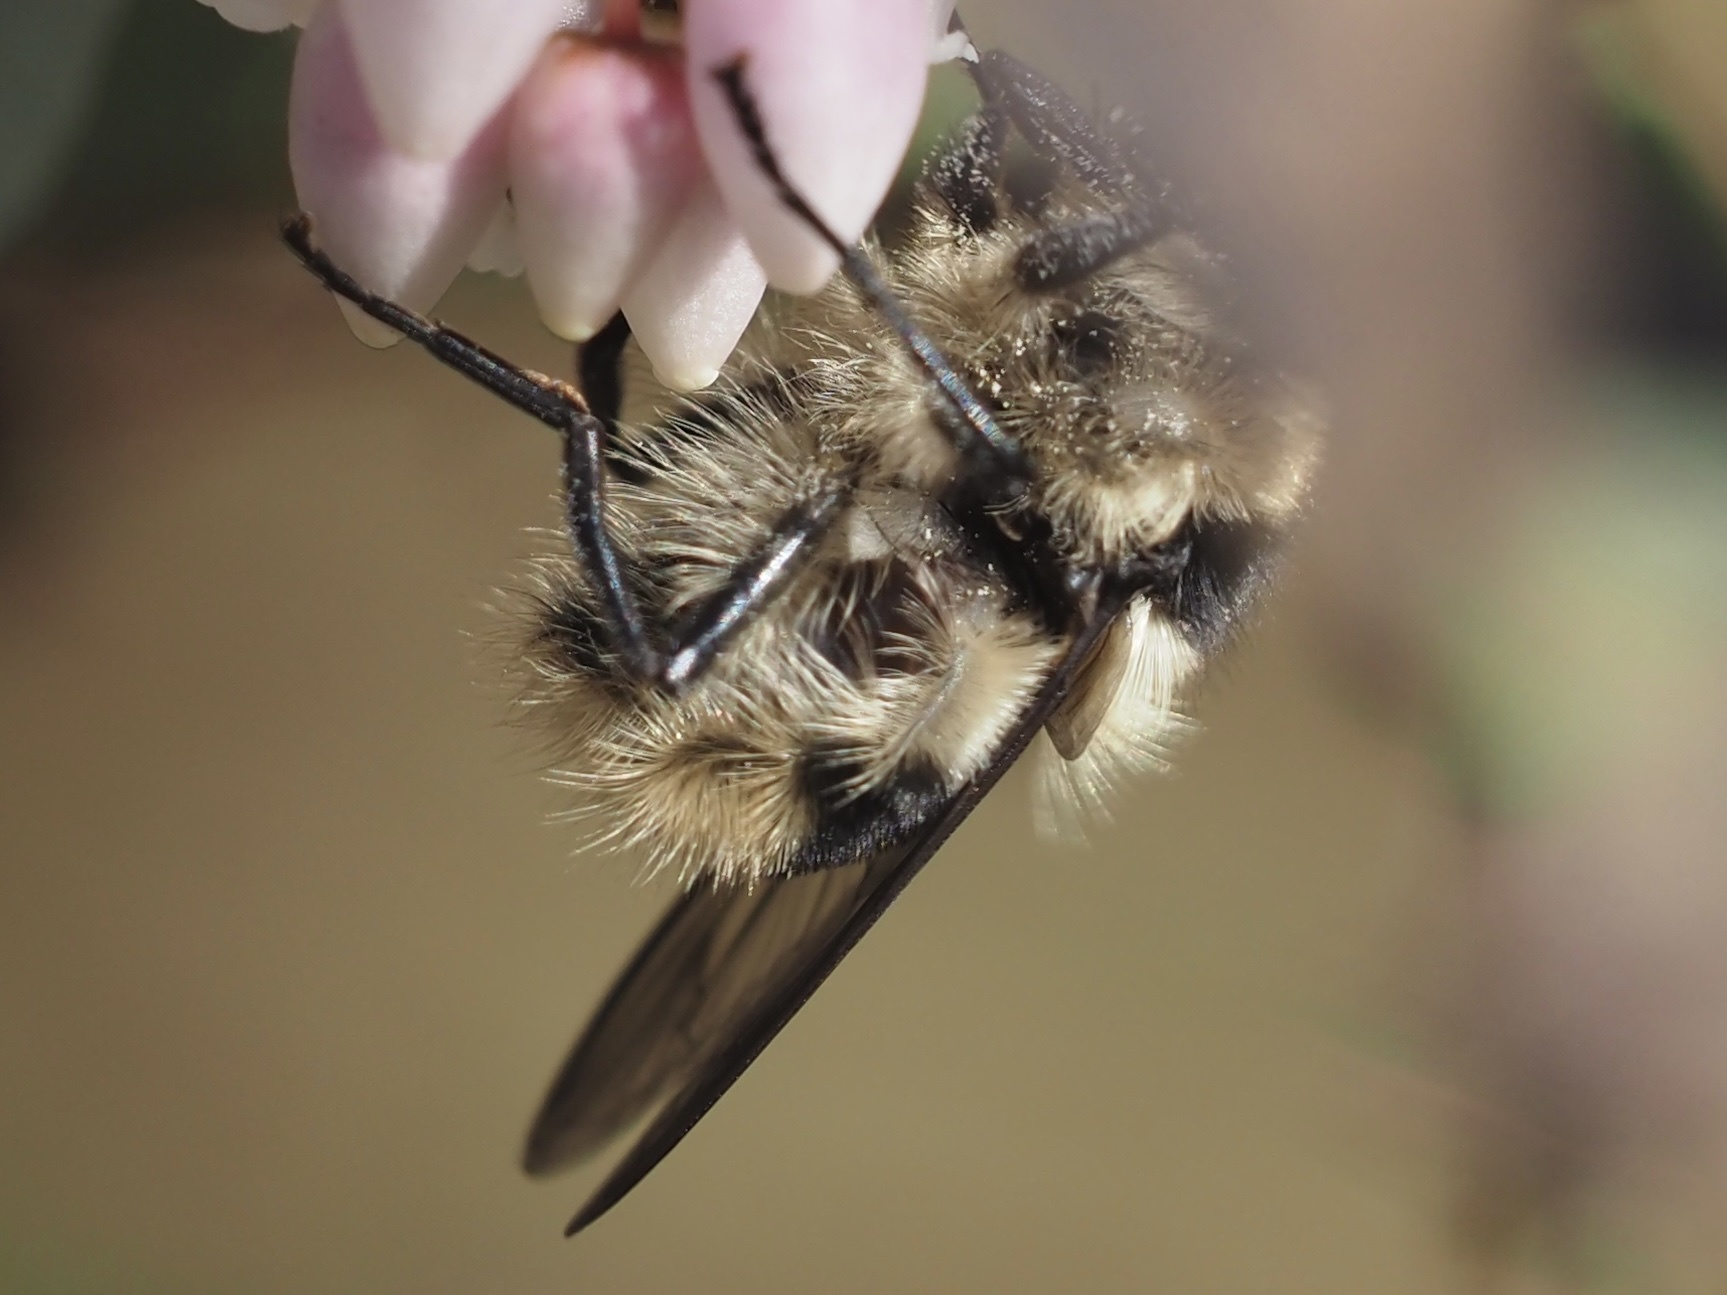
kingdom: Animalia
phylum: Arthropoda
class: Insecta
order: Diptera
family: Syrphidae
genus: Criorhina
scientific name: Criorhina nigripes
